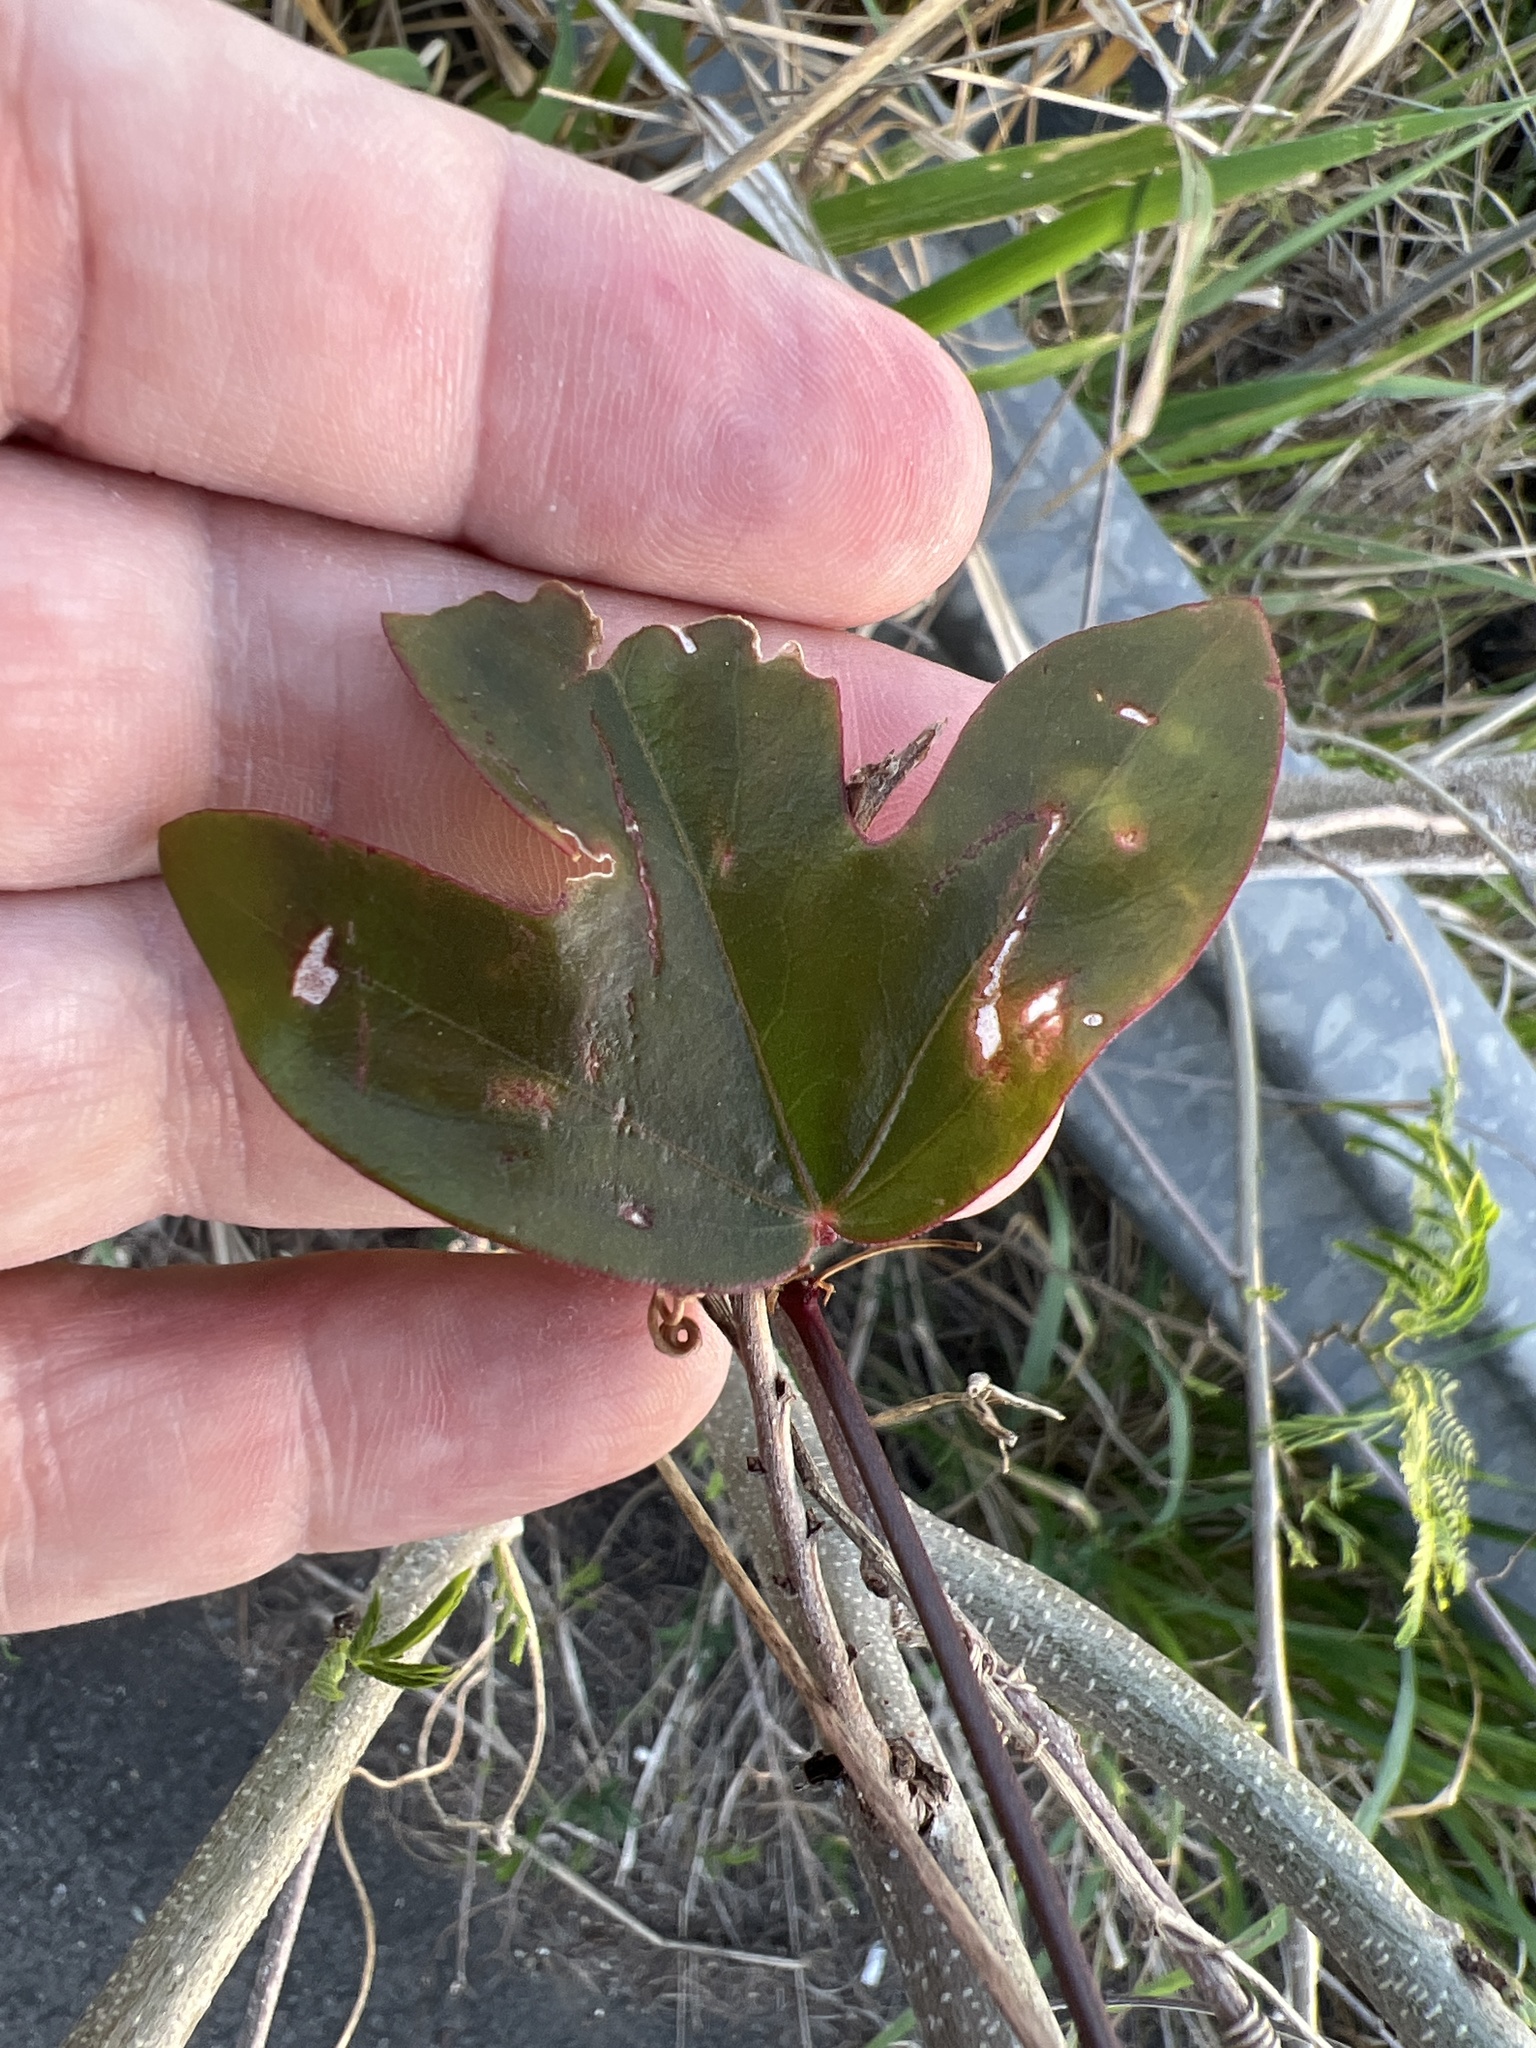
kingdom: Plantae
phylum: Tracheophyta
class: Magnoliopsida
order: Malpighiales
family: Passifloraceae
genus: Passiflora
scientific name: Passiflora suberosa
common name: Wild passionfruit
